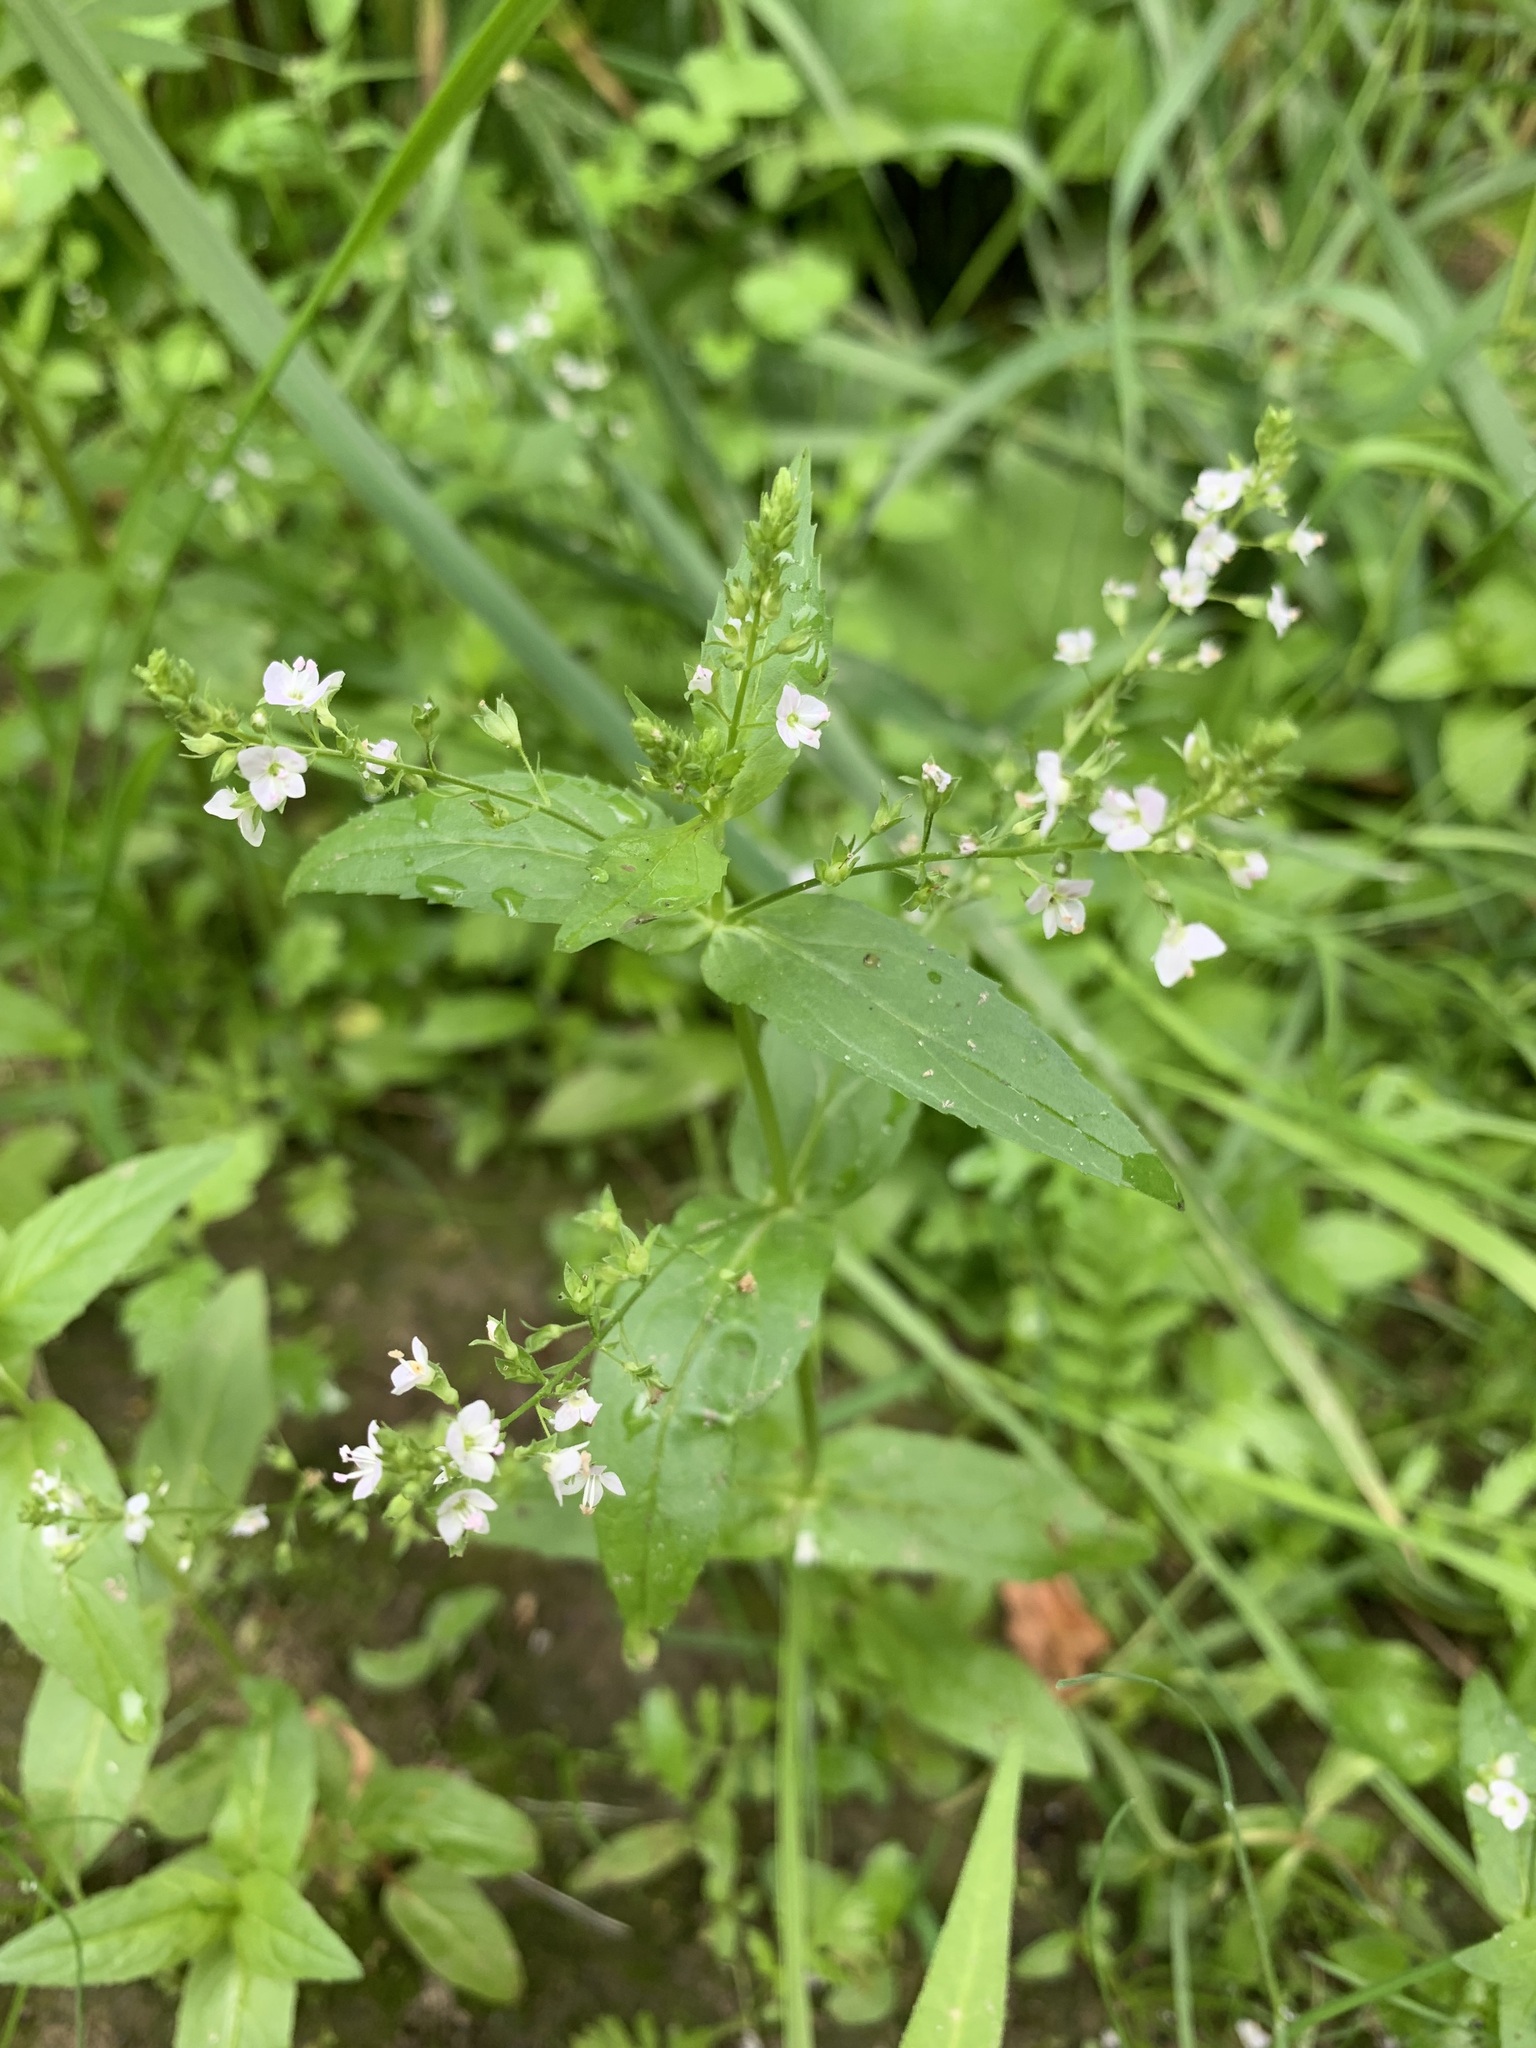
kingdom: Plantae
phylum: Tracheophyta
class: Magnoliopsida
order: Lamiales
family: Plantaginaceae
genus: Veronica
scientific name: Veronica anagallis-aquatica
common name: Water speedwell
